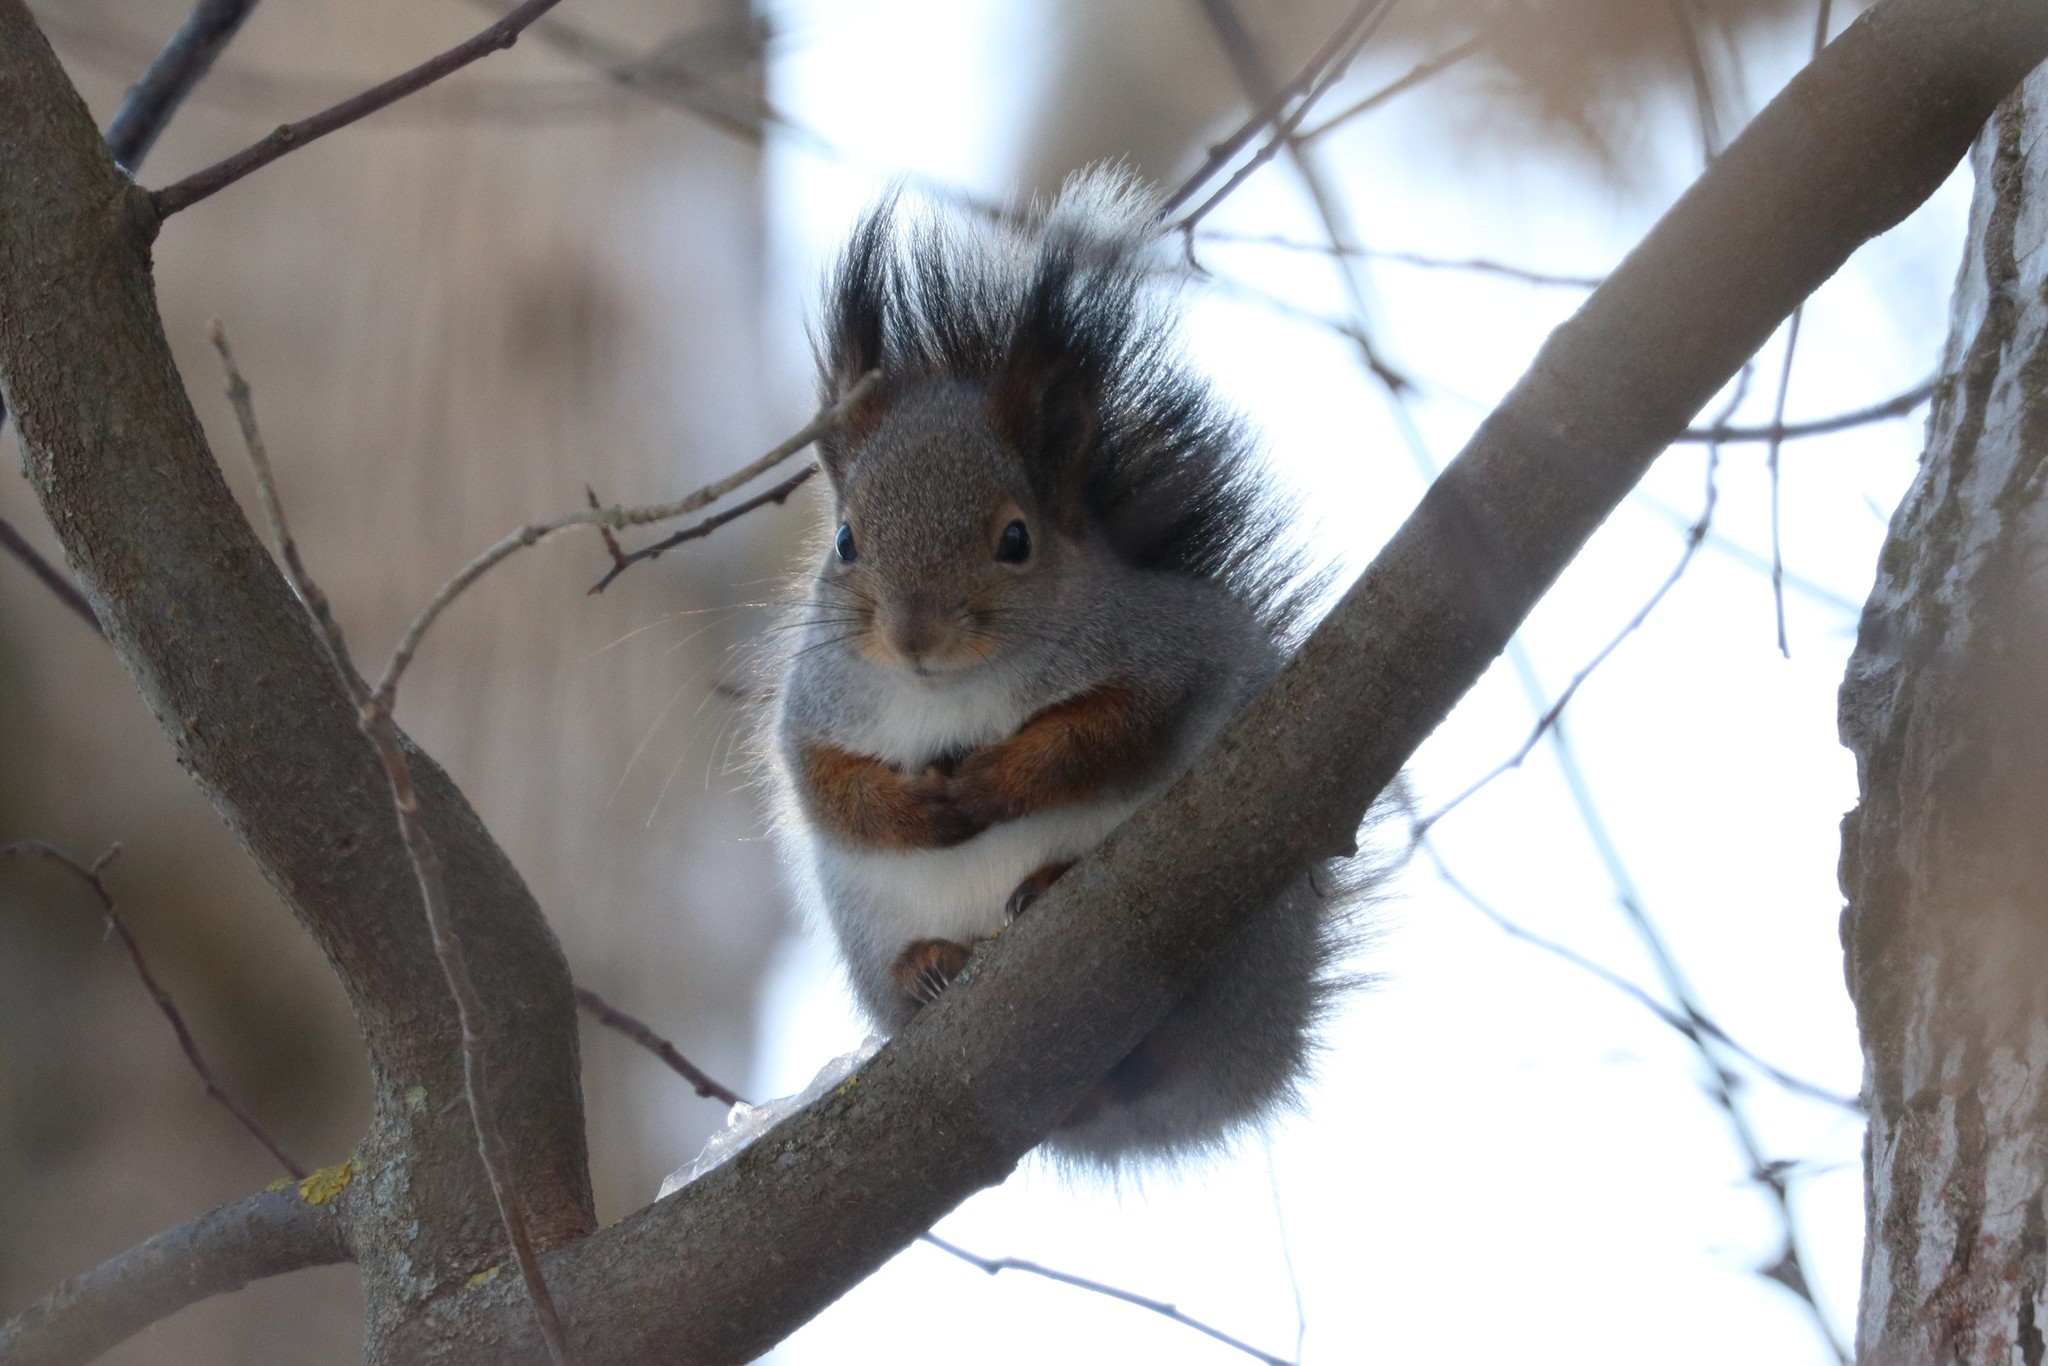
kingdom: Animalia
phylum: Chordata
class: Mammalia
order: Rodentia
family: Sciuridae
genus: Sciurus
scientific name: Sciurus vulgaris
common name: Eurasian red squirrel
